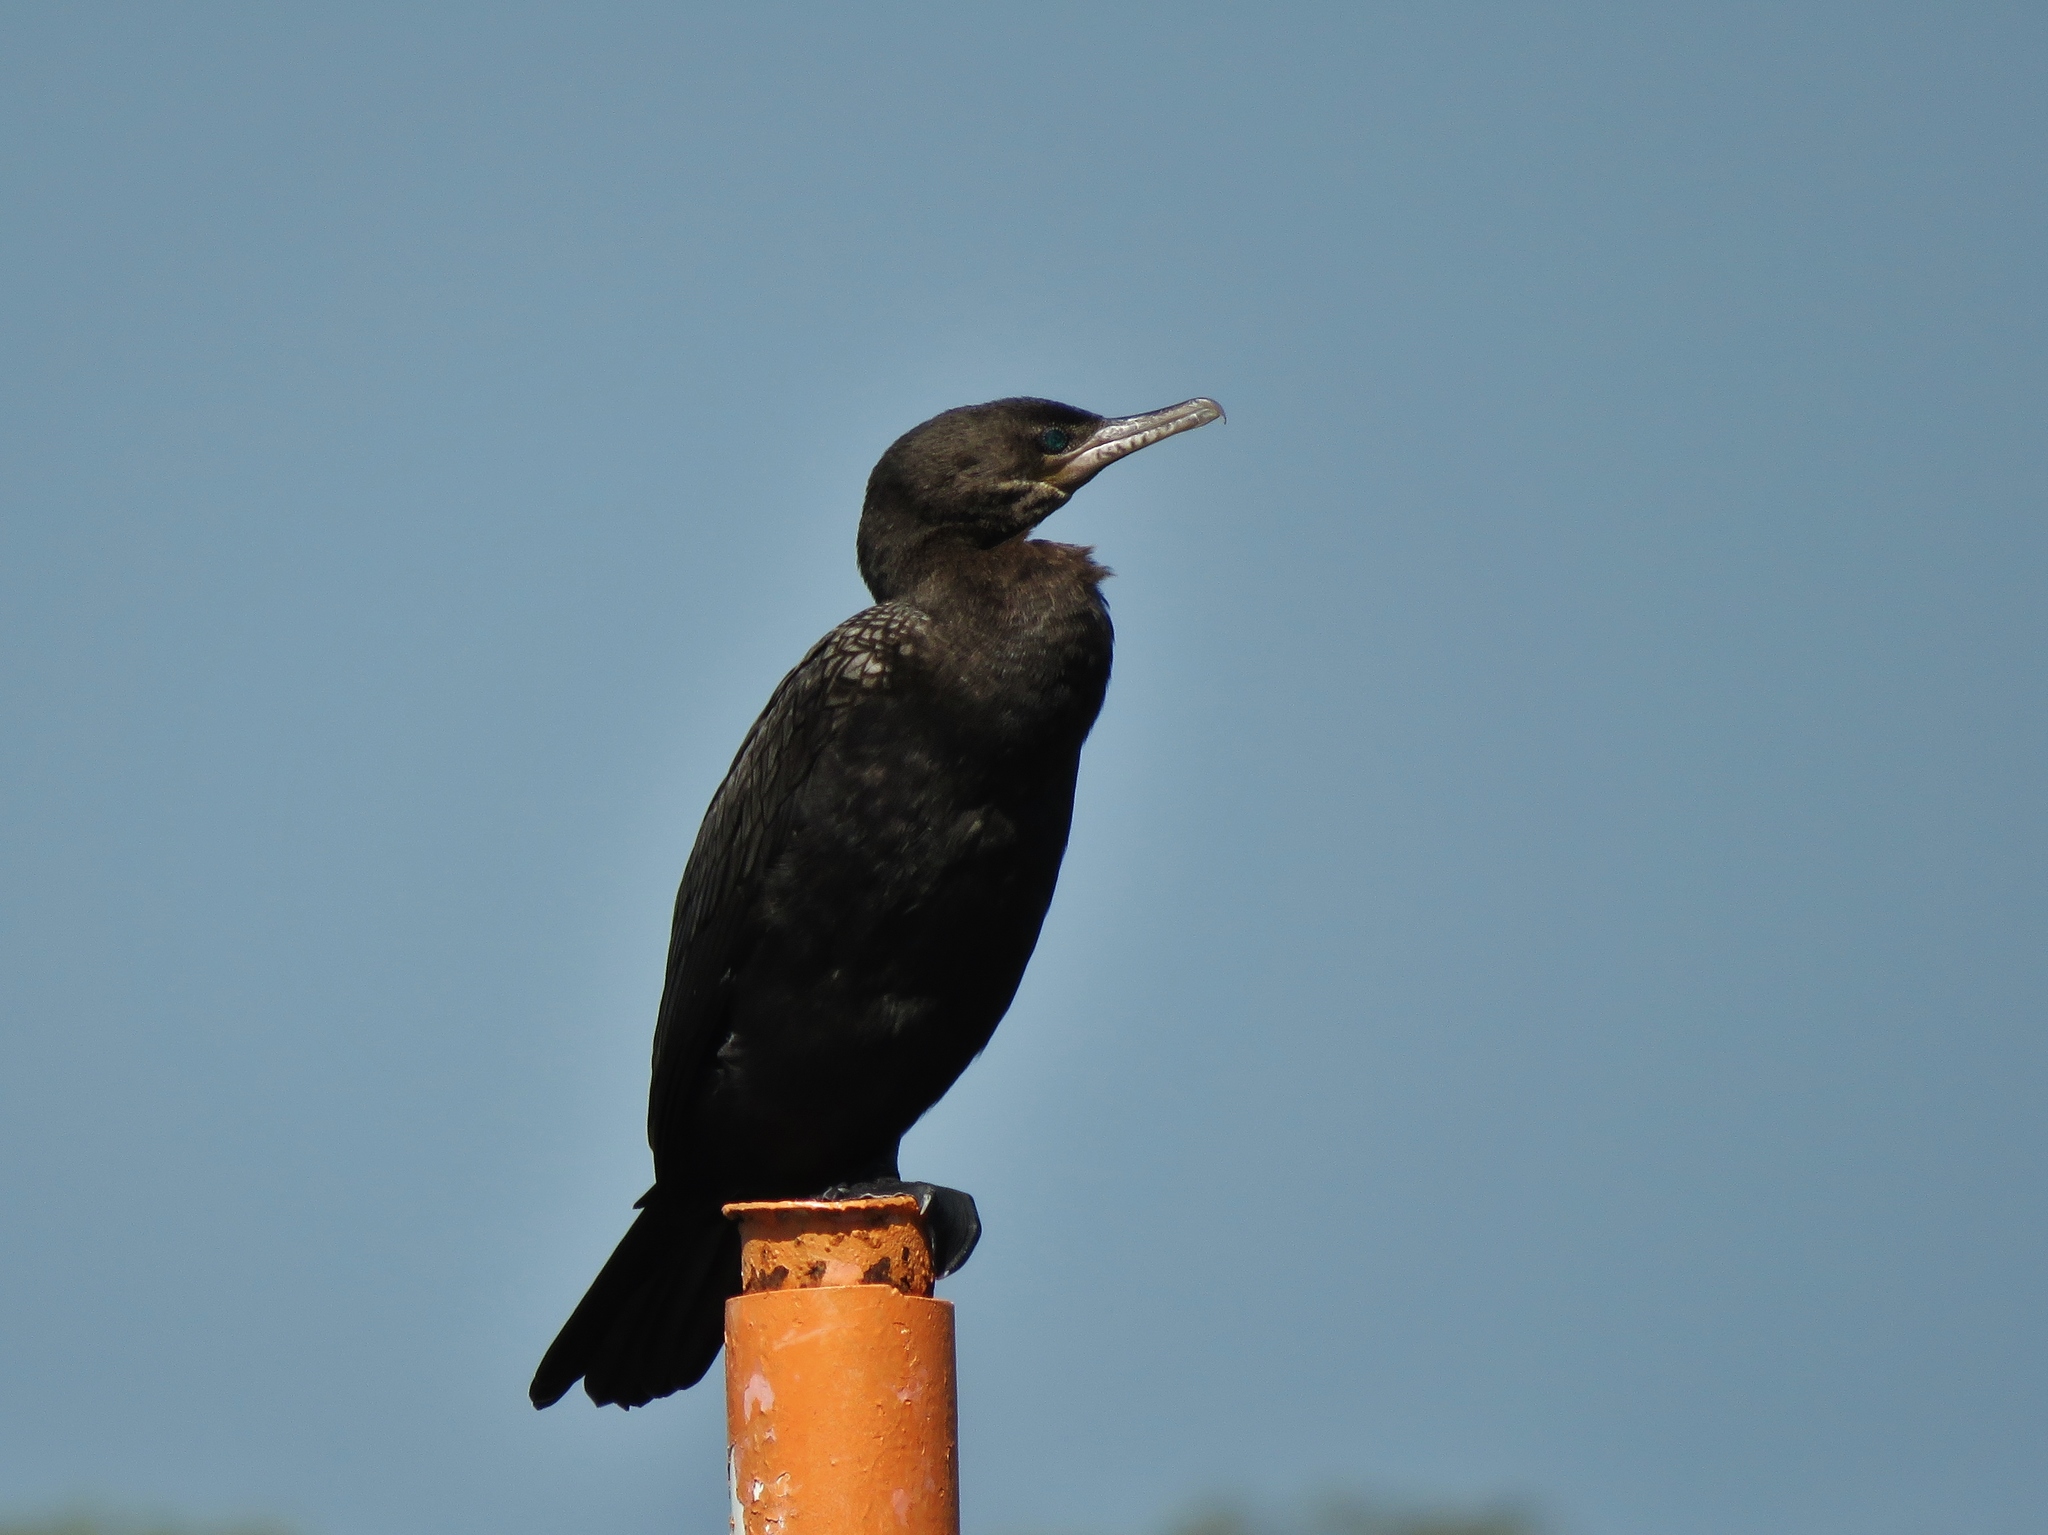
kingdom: Animalia
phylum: Chordata
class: Aves
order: Suliformes
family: Phalacrocoracidae
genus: Phalacrocorax
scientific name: Phalacrocorax brasilianus
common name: Neotropic cormorant
